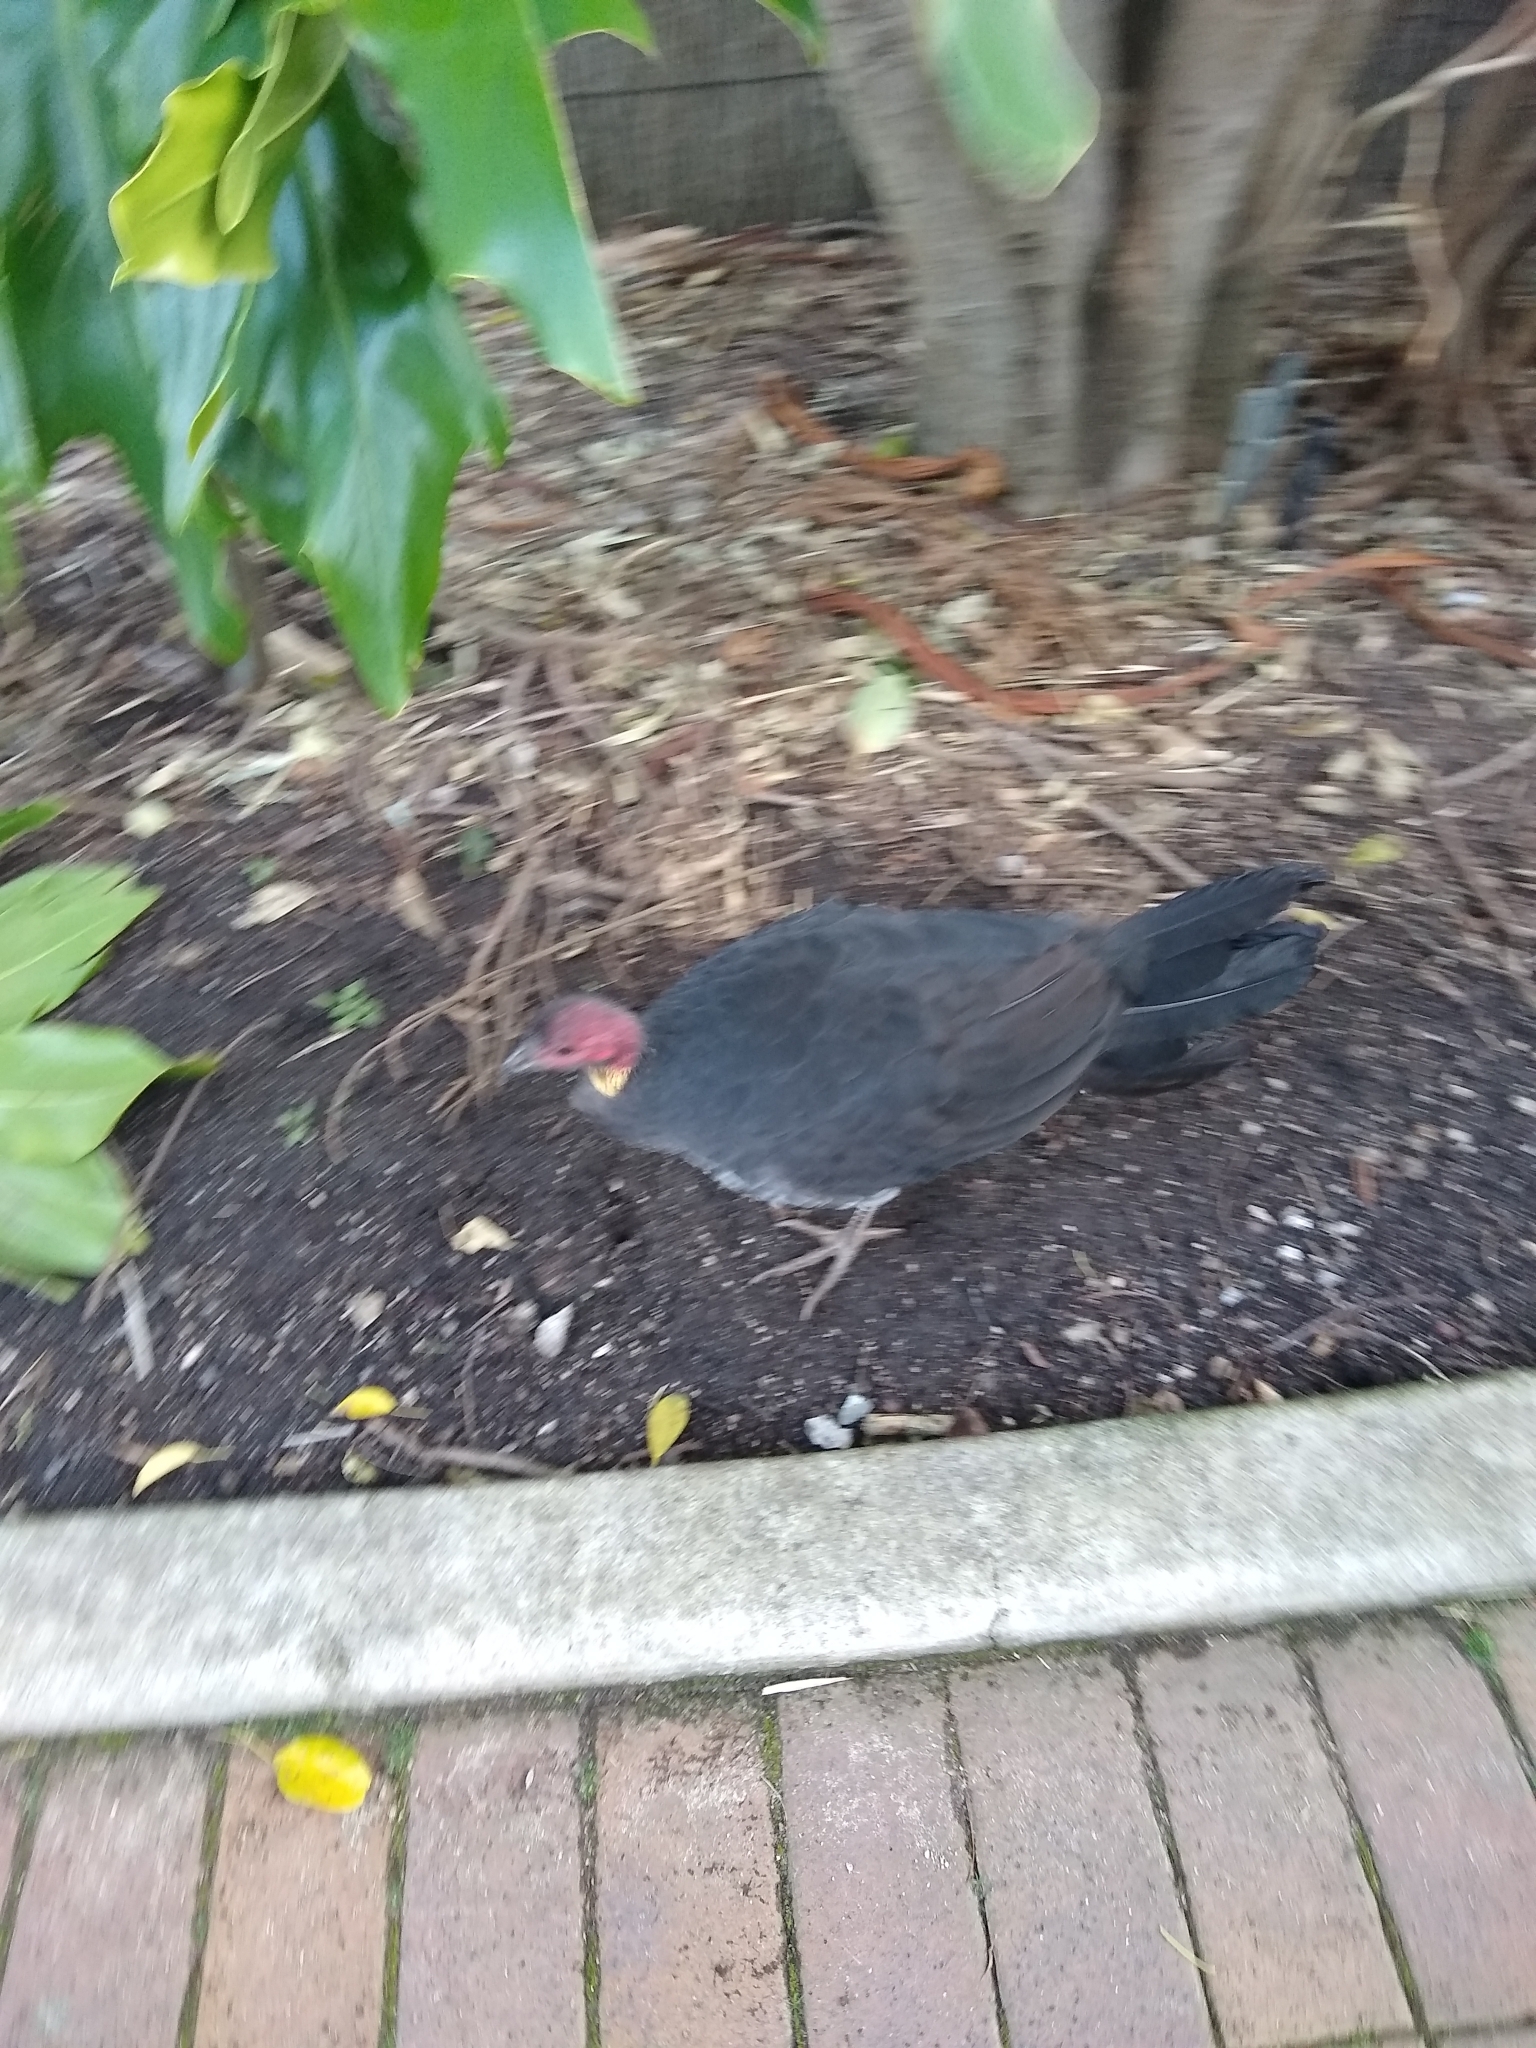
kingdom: Animalia
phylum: Chordata
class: Aves
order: Galliformes
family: Megapodiidae
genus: Alectura
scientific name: Alectura lathami
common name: Australian brushturkey
